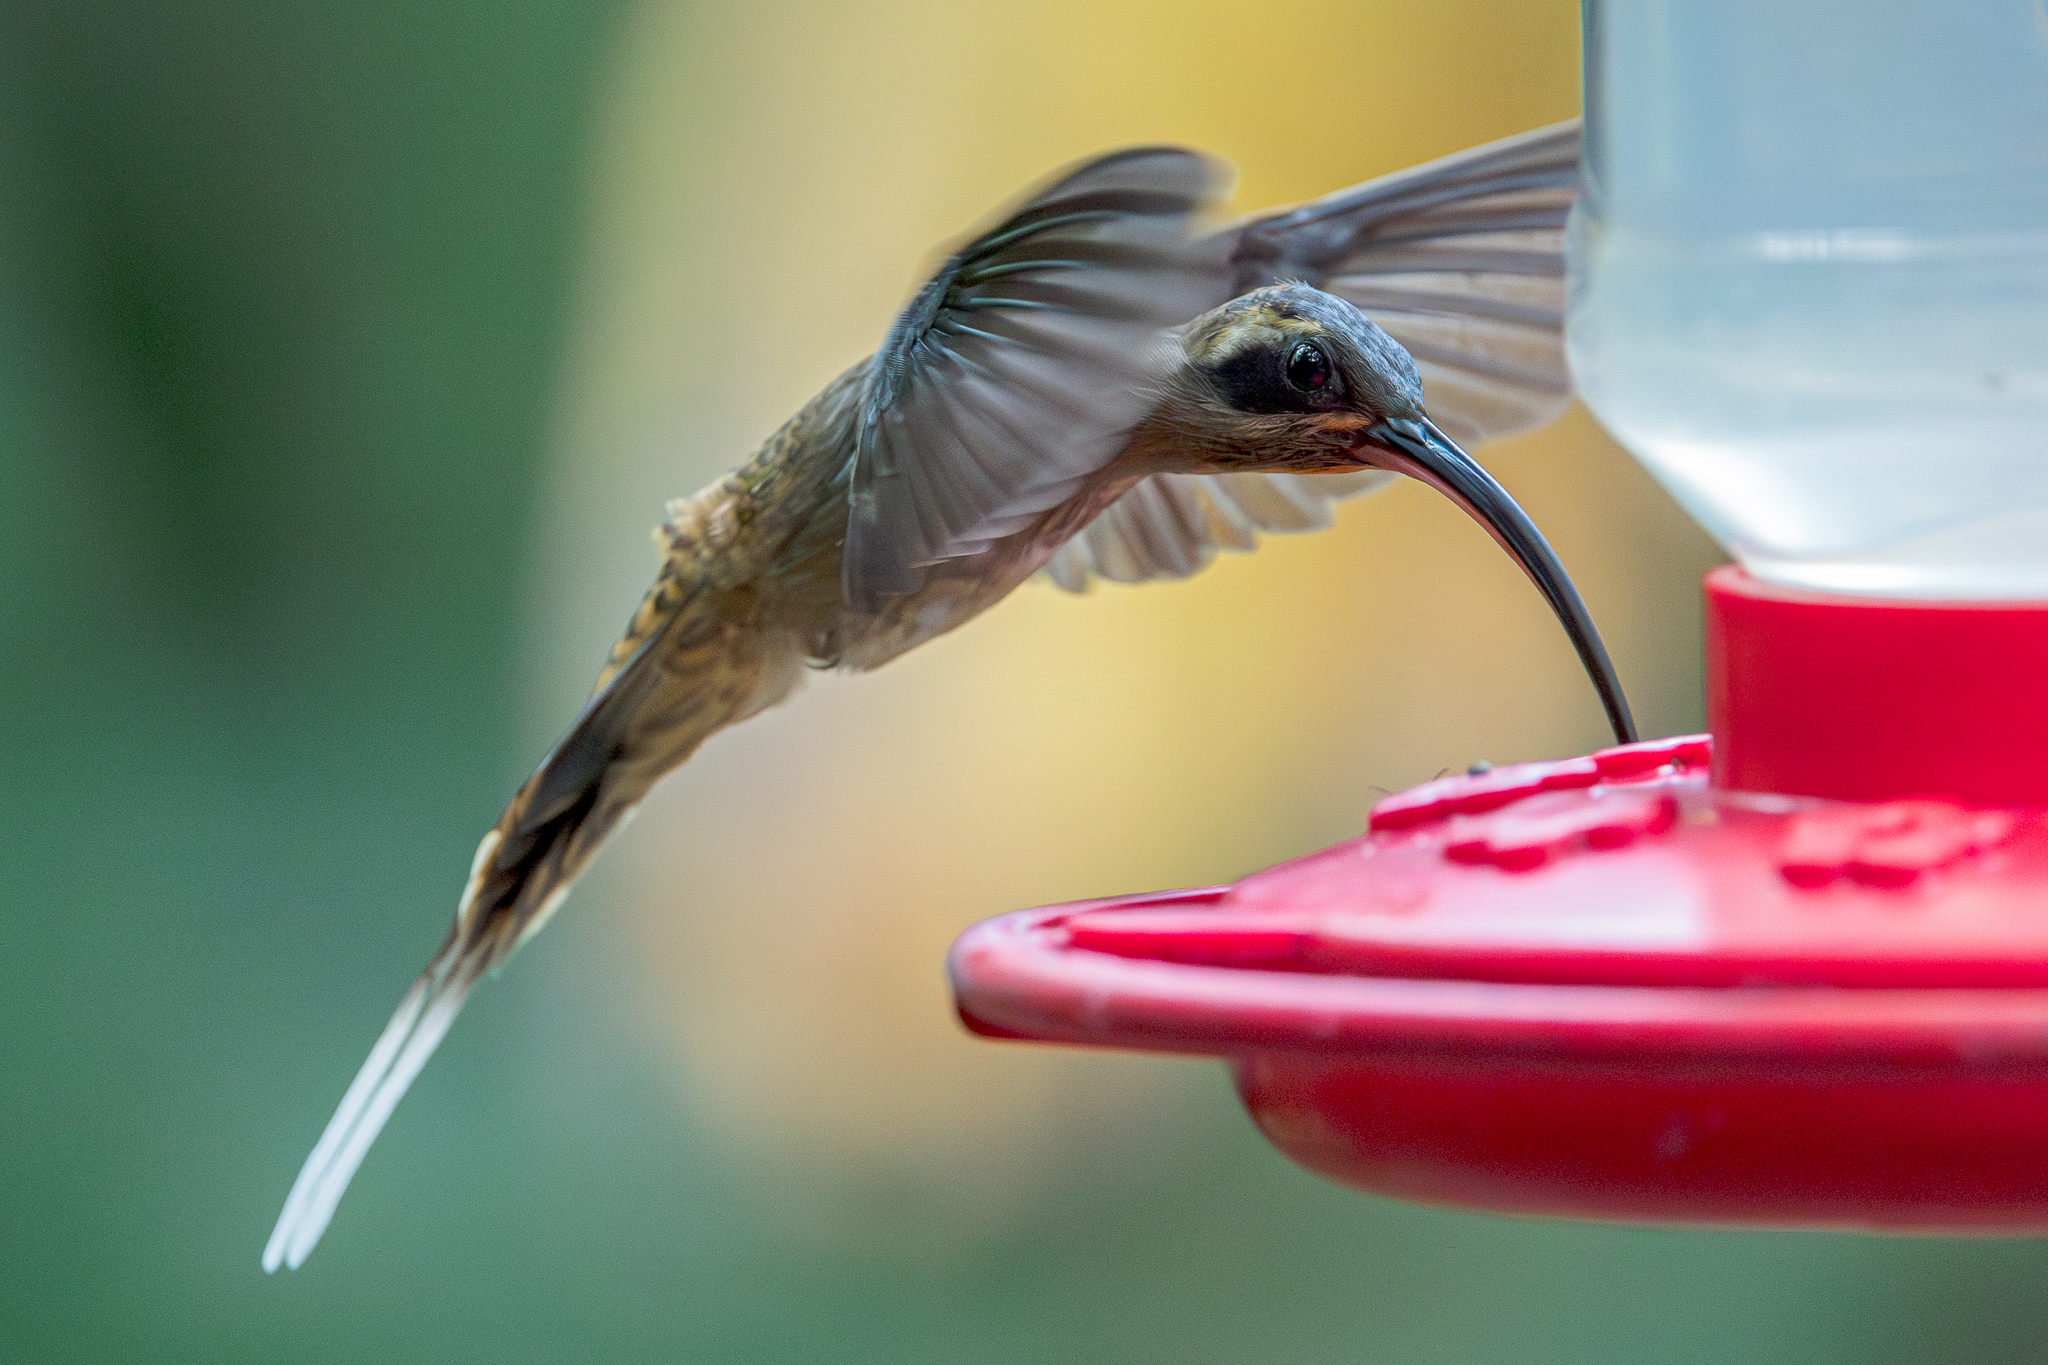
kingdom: Animalia
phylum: Chordata
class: Aves
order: Apodiformes
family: Trochilidae
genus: Phaethornis
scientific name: Phaethornis longirostris
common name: Long-billed hermit
